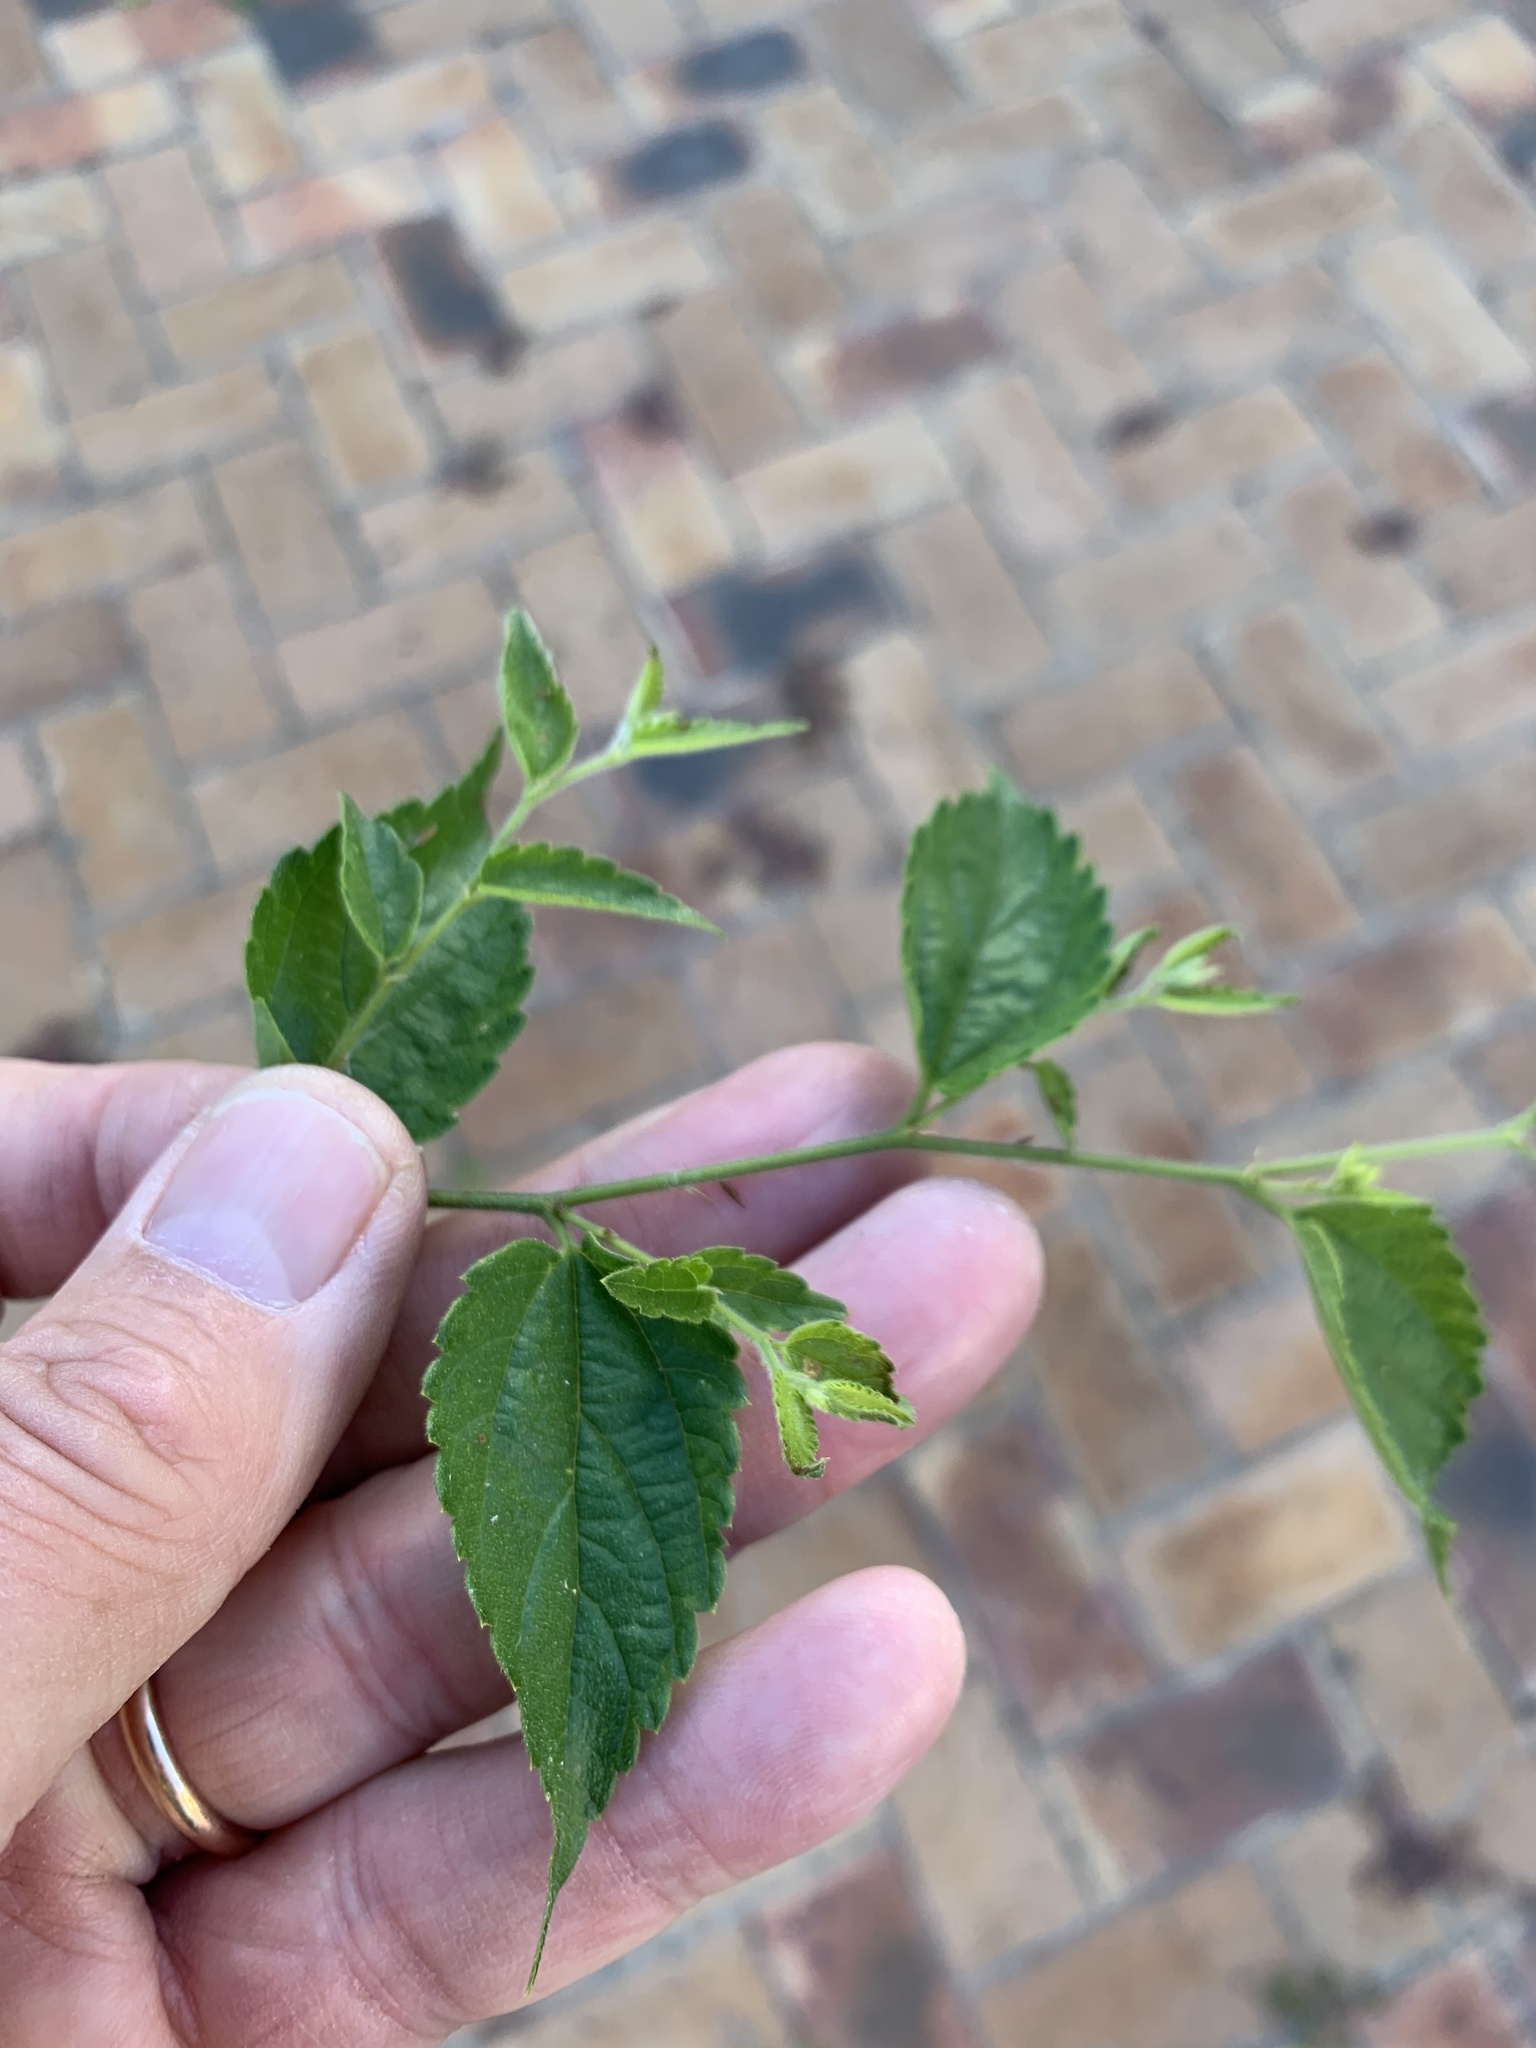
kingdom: Plantae
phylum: Tracheophyta
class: Magnoliopsida
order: Rosales
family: Cannabaceae
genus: Celtis
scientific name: Celtis sinensis
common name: Chinese hackberry
